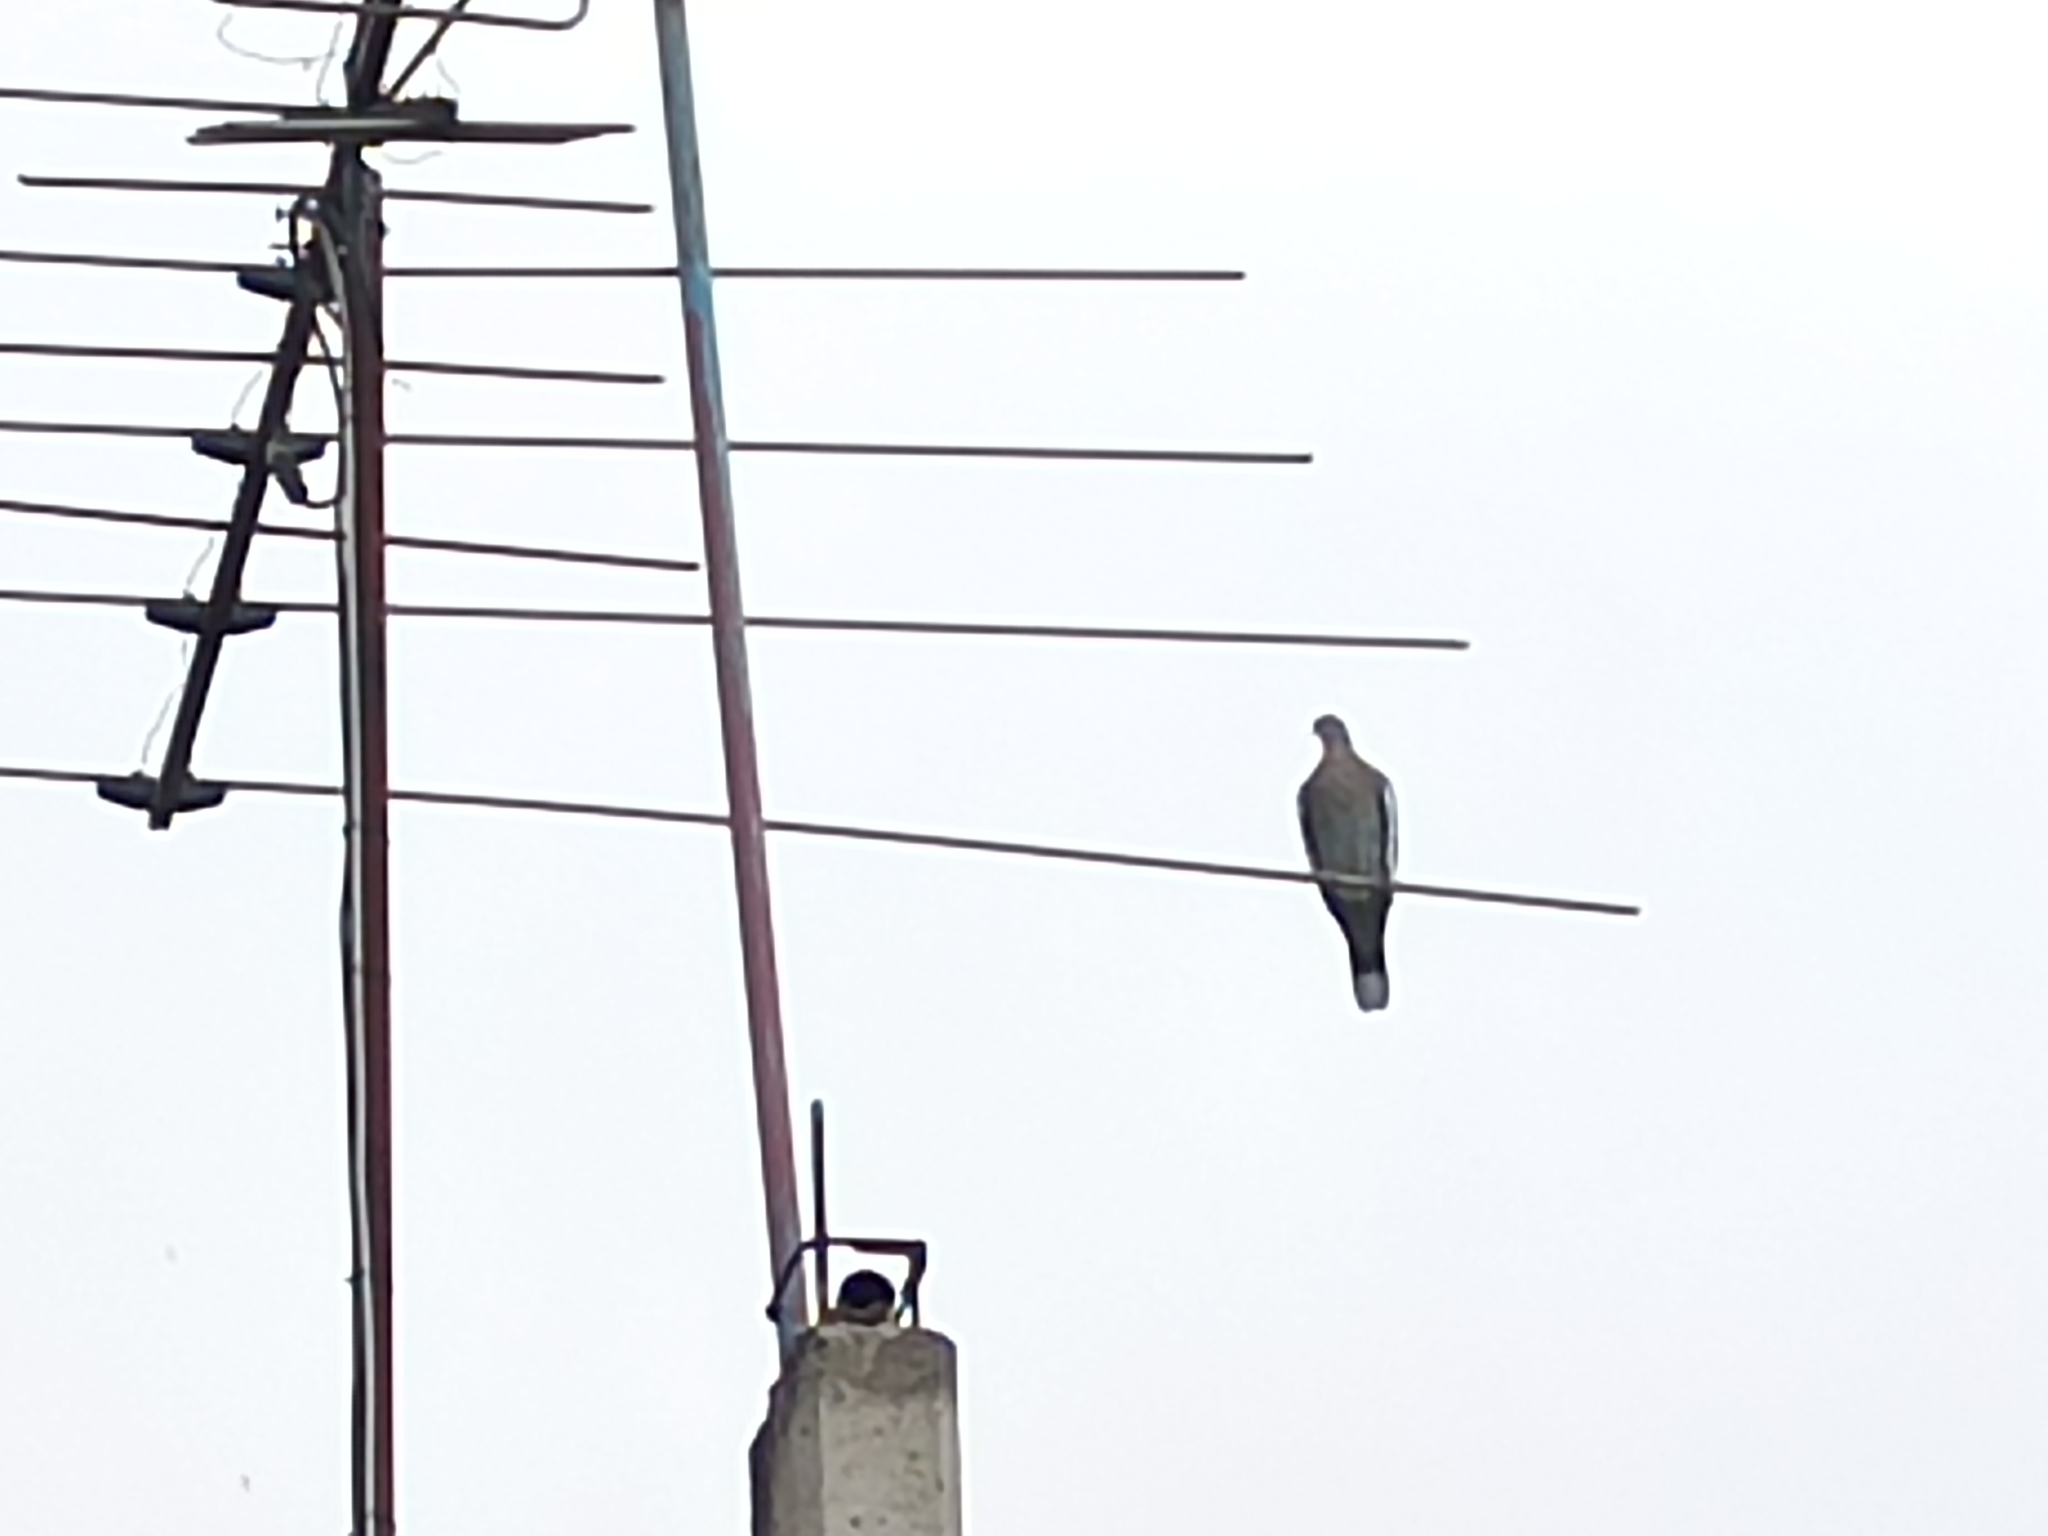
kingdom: Animalia
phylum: Chordata
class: Aves
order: Columbiformes
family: Columbidae
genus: Zenaida
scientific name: Zenaida asiatica
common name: White-winged dove
